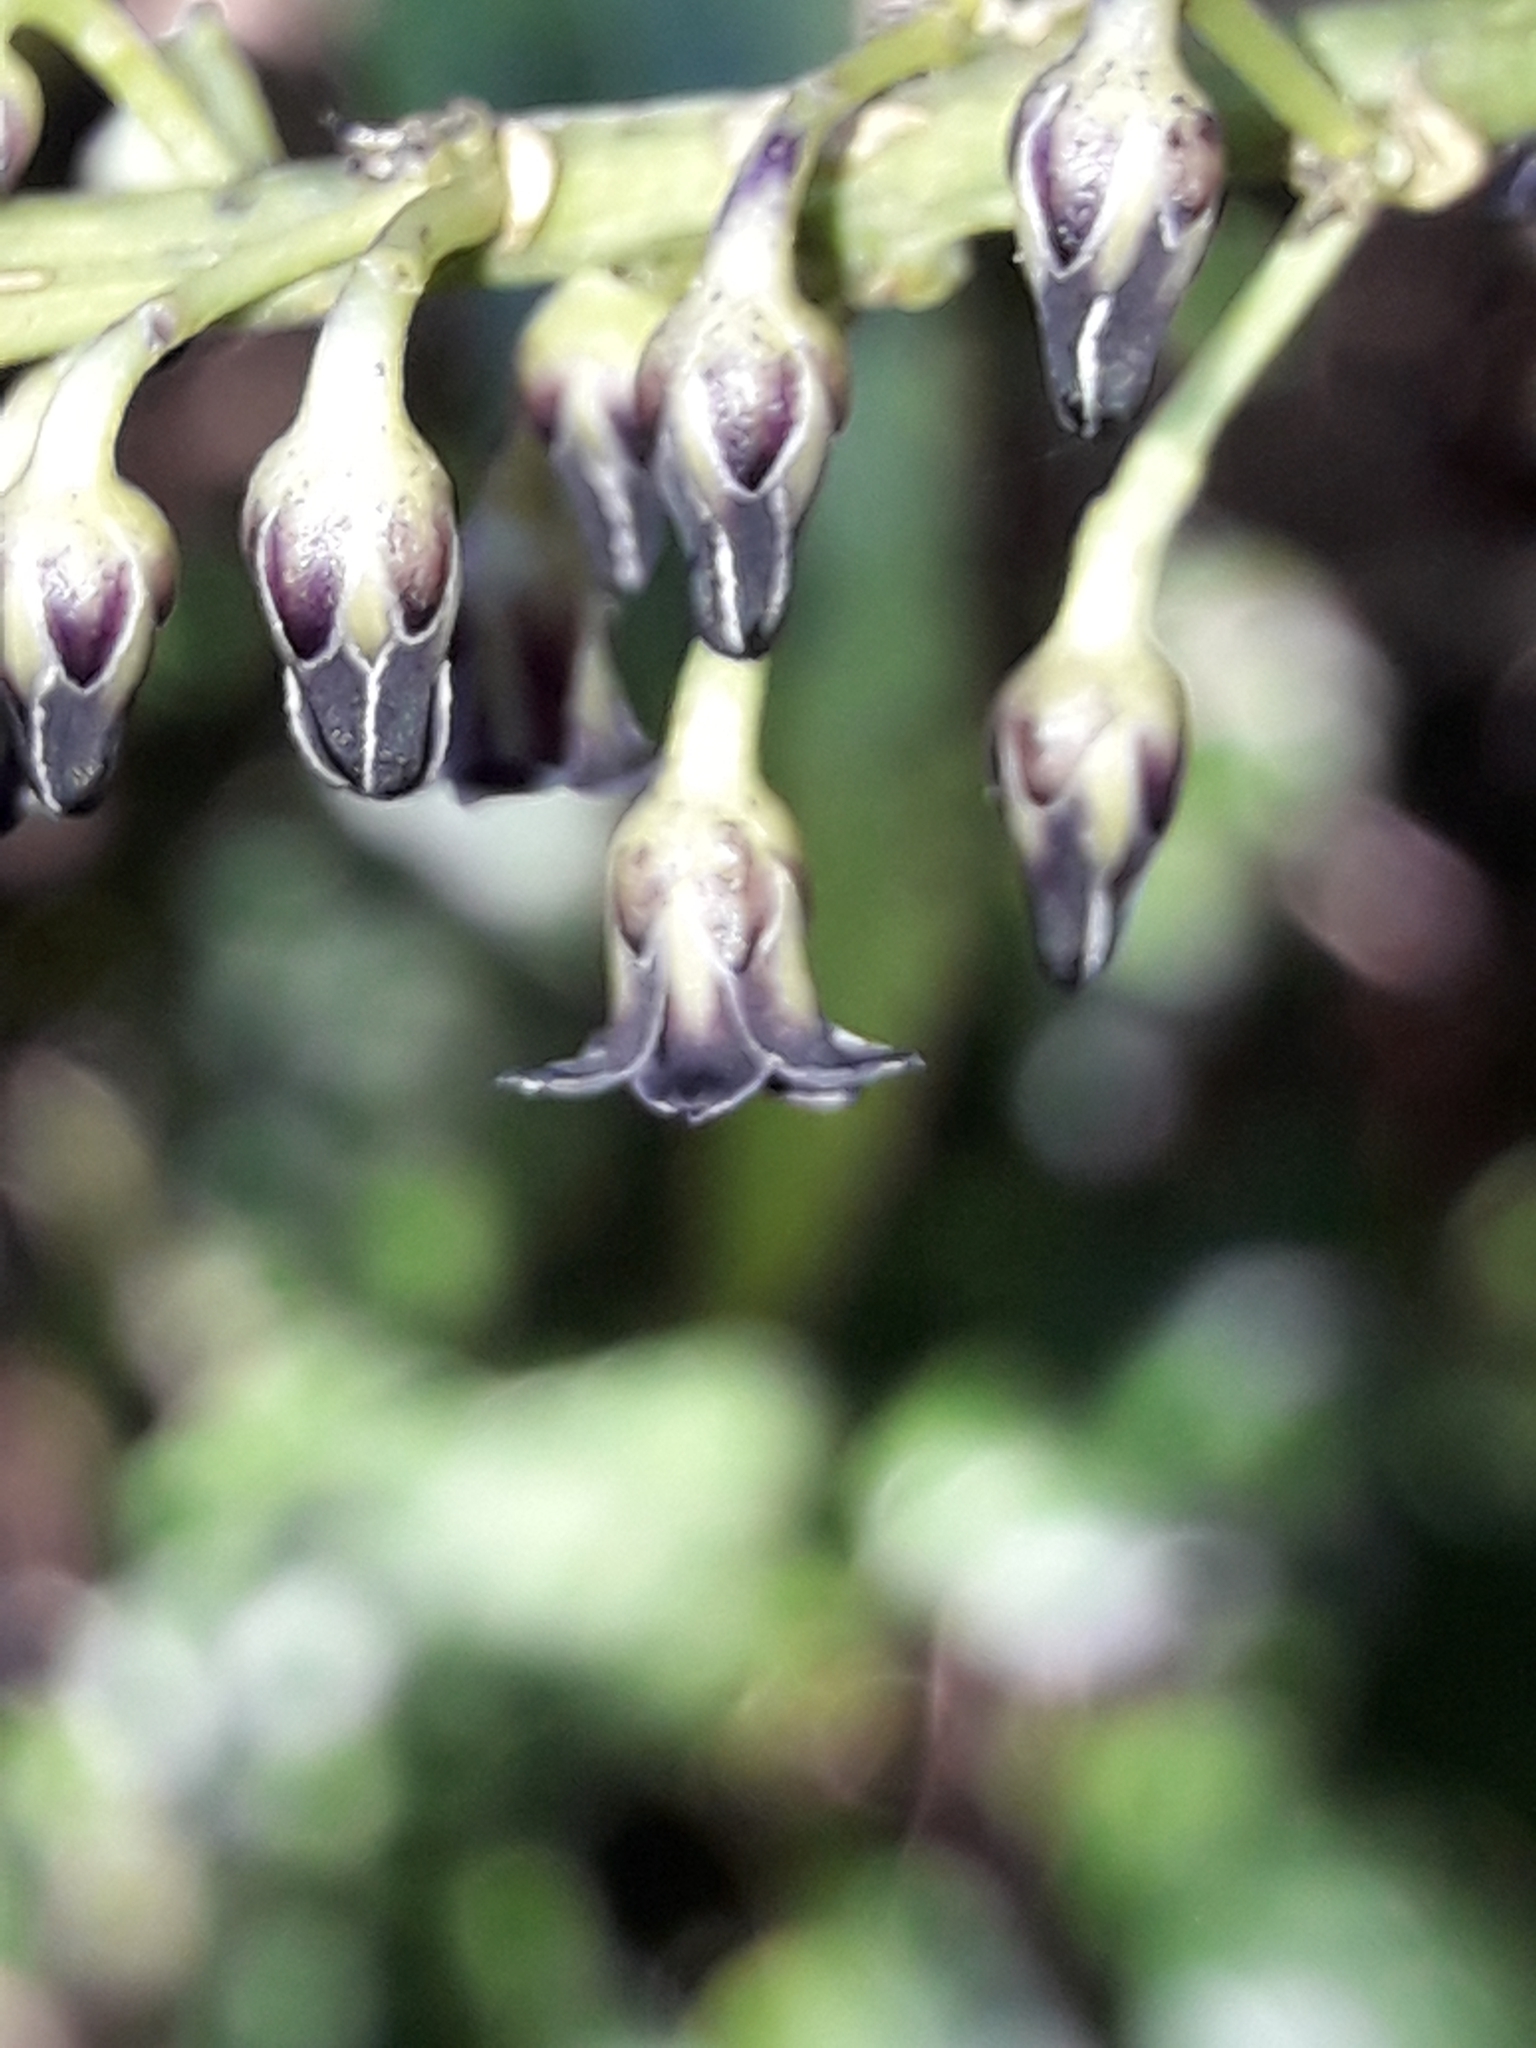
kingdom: Plantae
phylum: Tracheophyta
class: Magnoliopsida
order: Malpighiales
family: Violaceae
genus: Melicytus
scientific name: Melicytus lanceolatus
